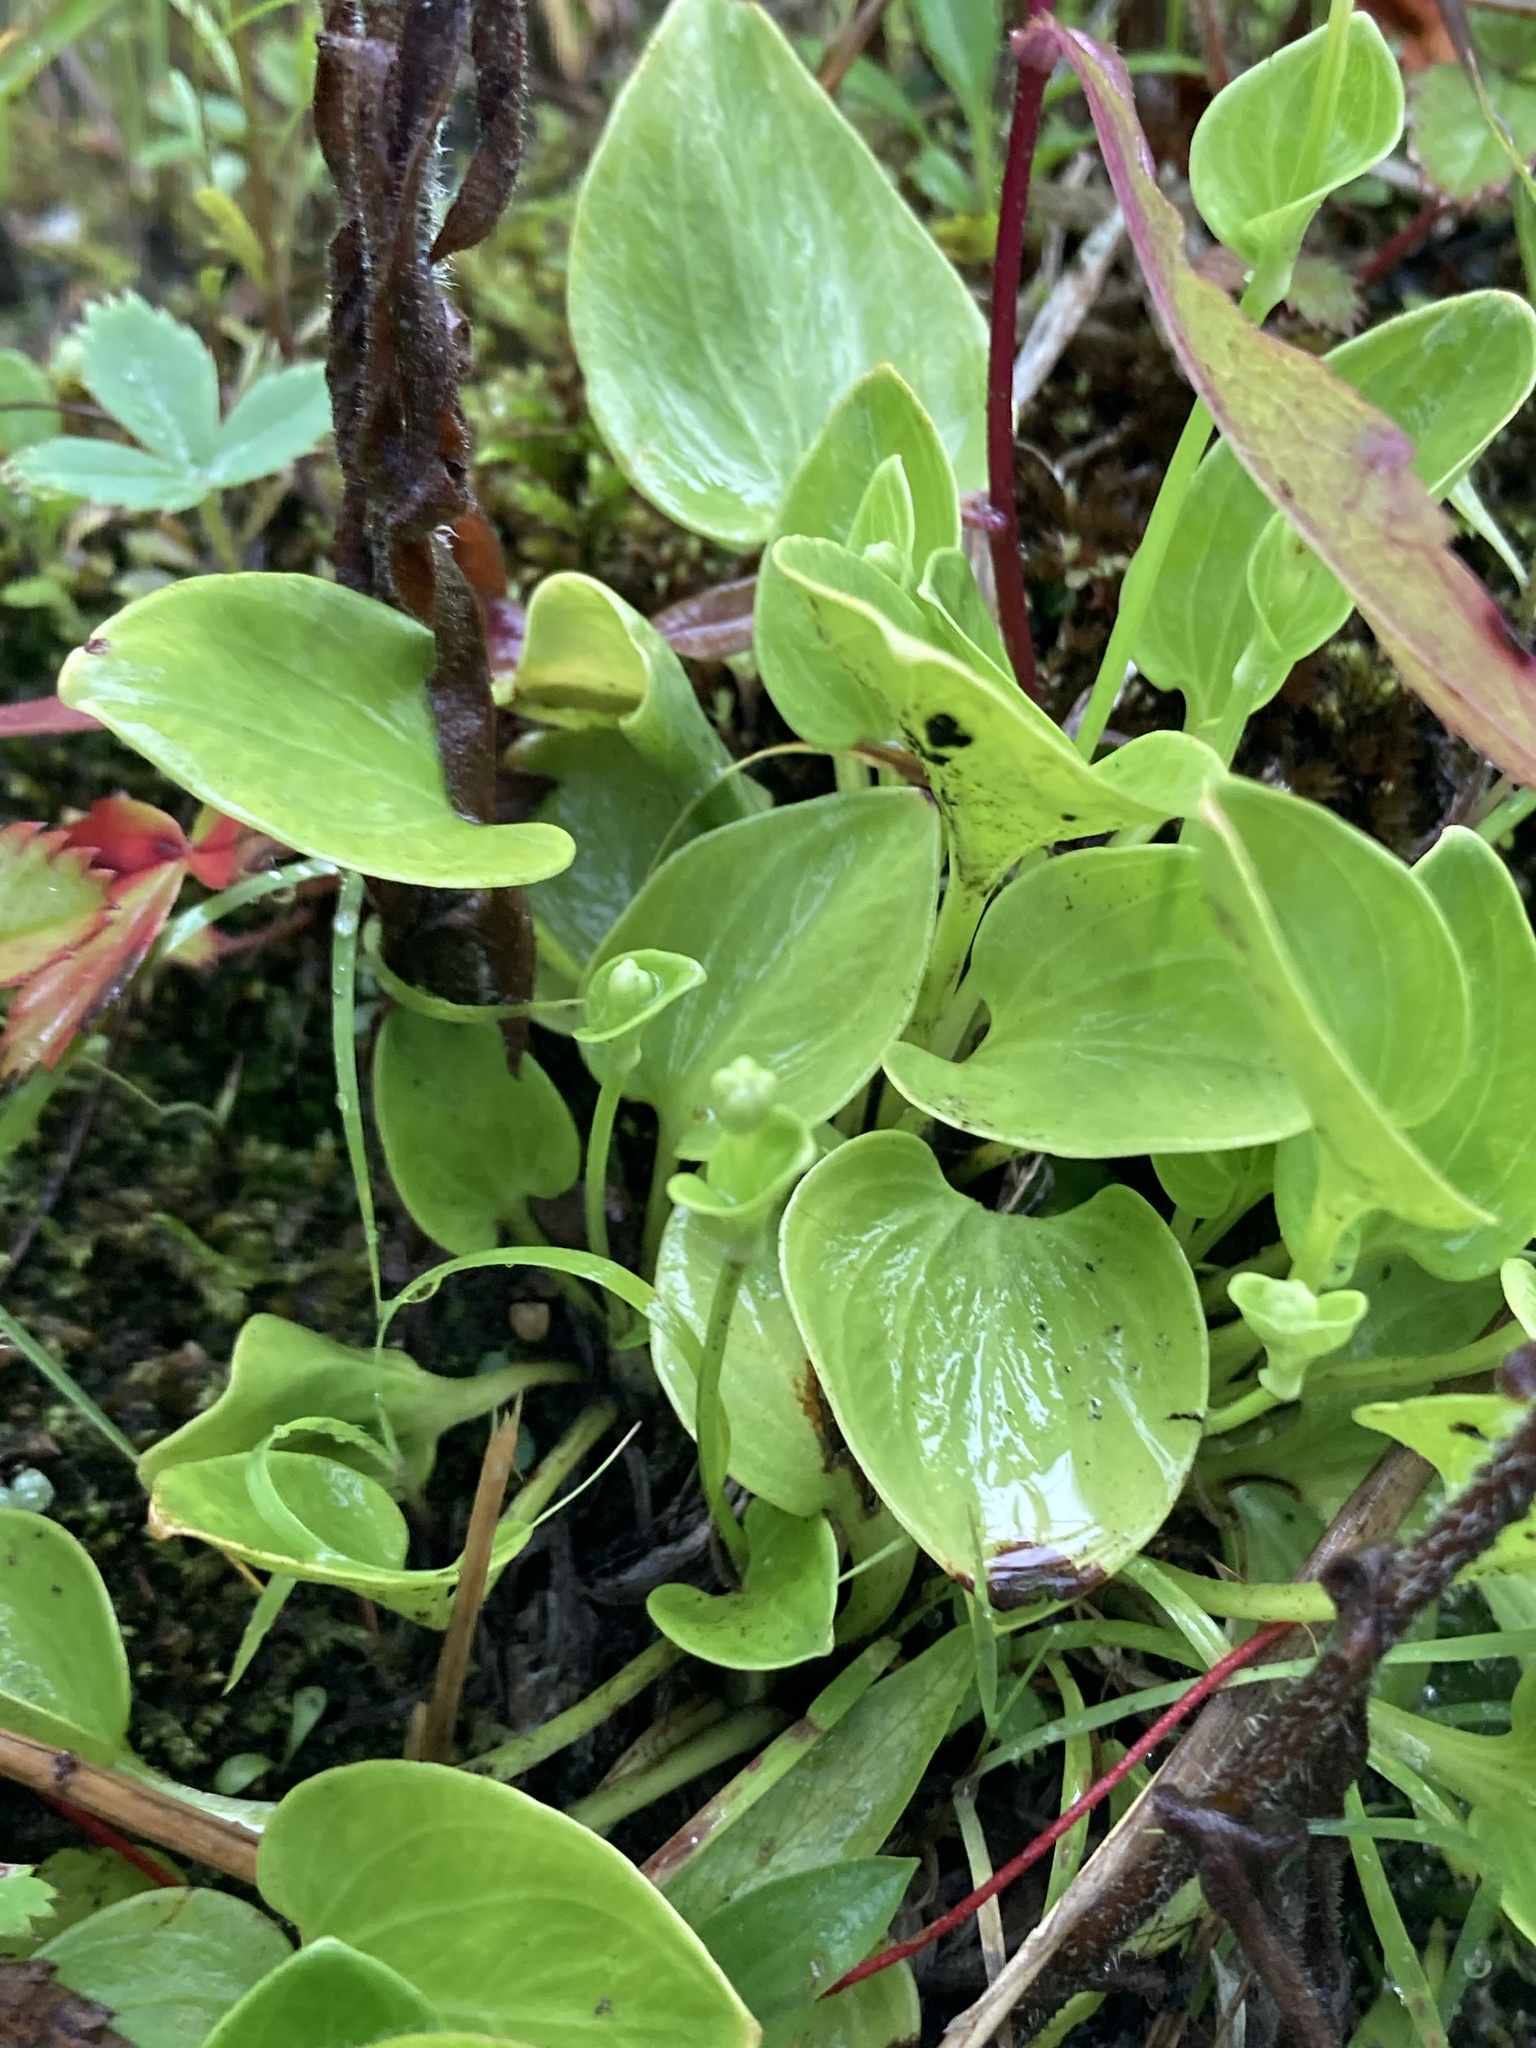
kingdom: Plantae
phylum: Tracheophyta
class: Magnoliopsida
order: Celastrales
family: Parnassiaceae
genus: Parnassia
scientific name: Parnassia glauca
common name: American grass-of-parnassus
